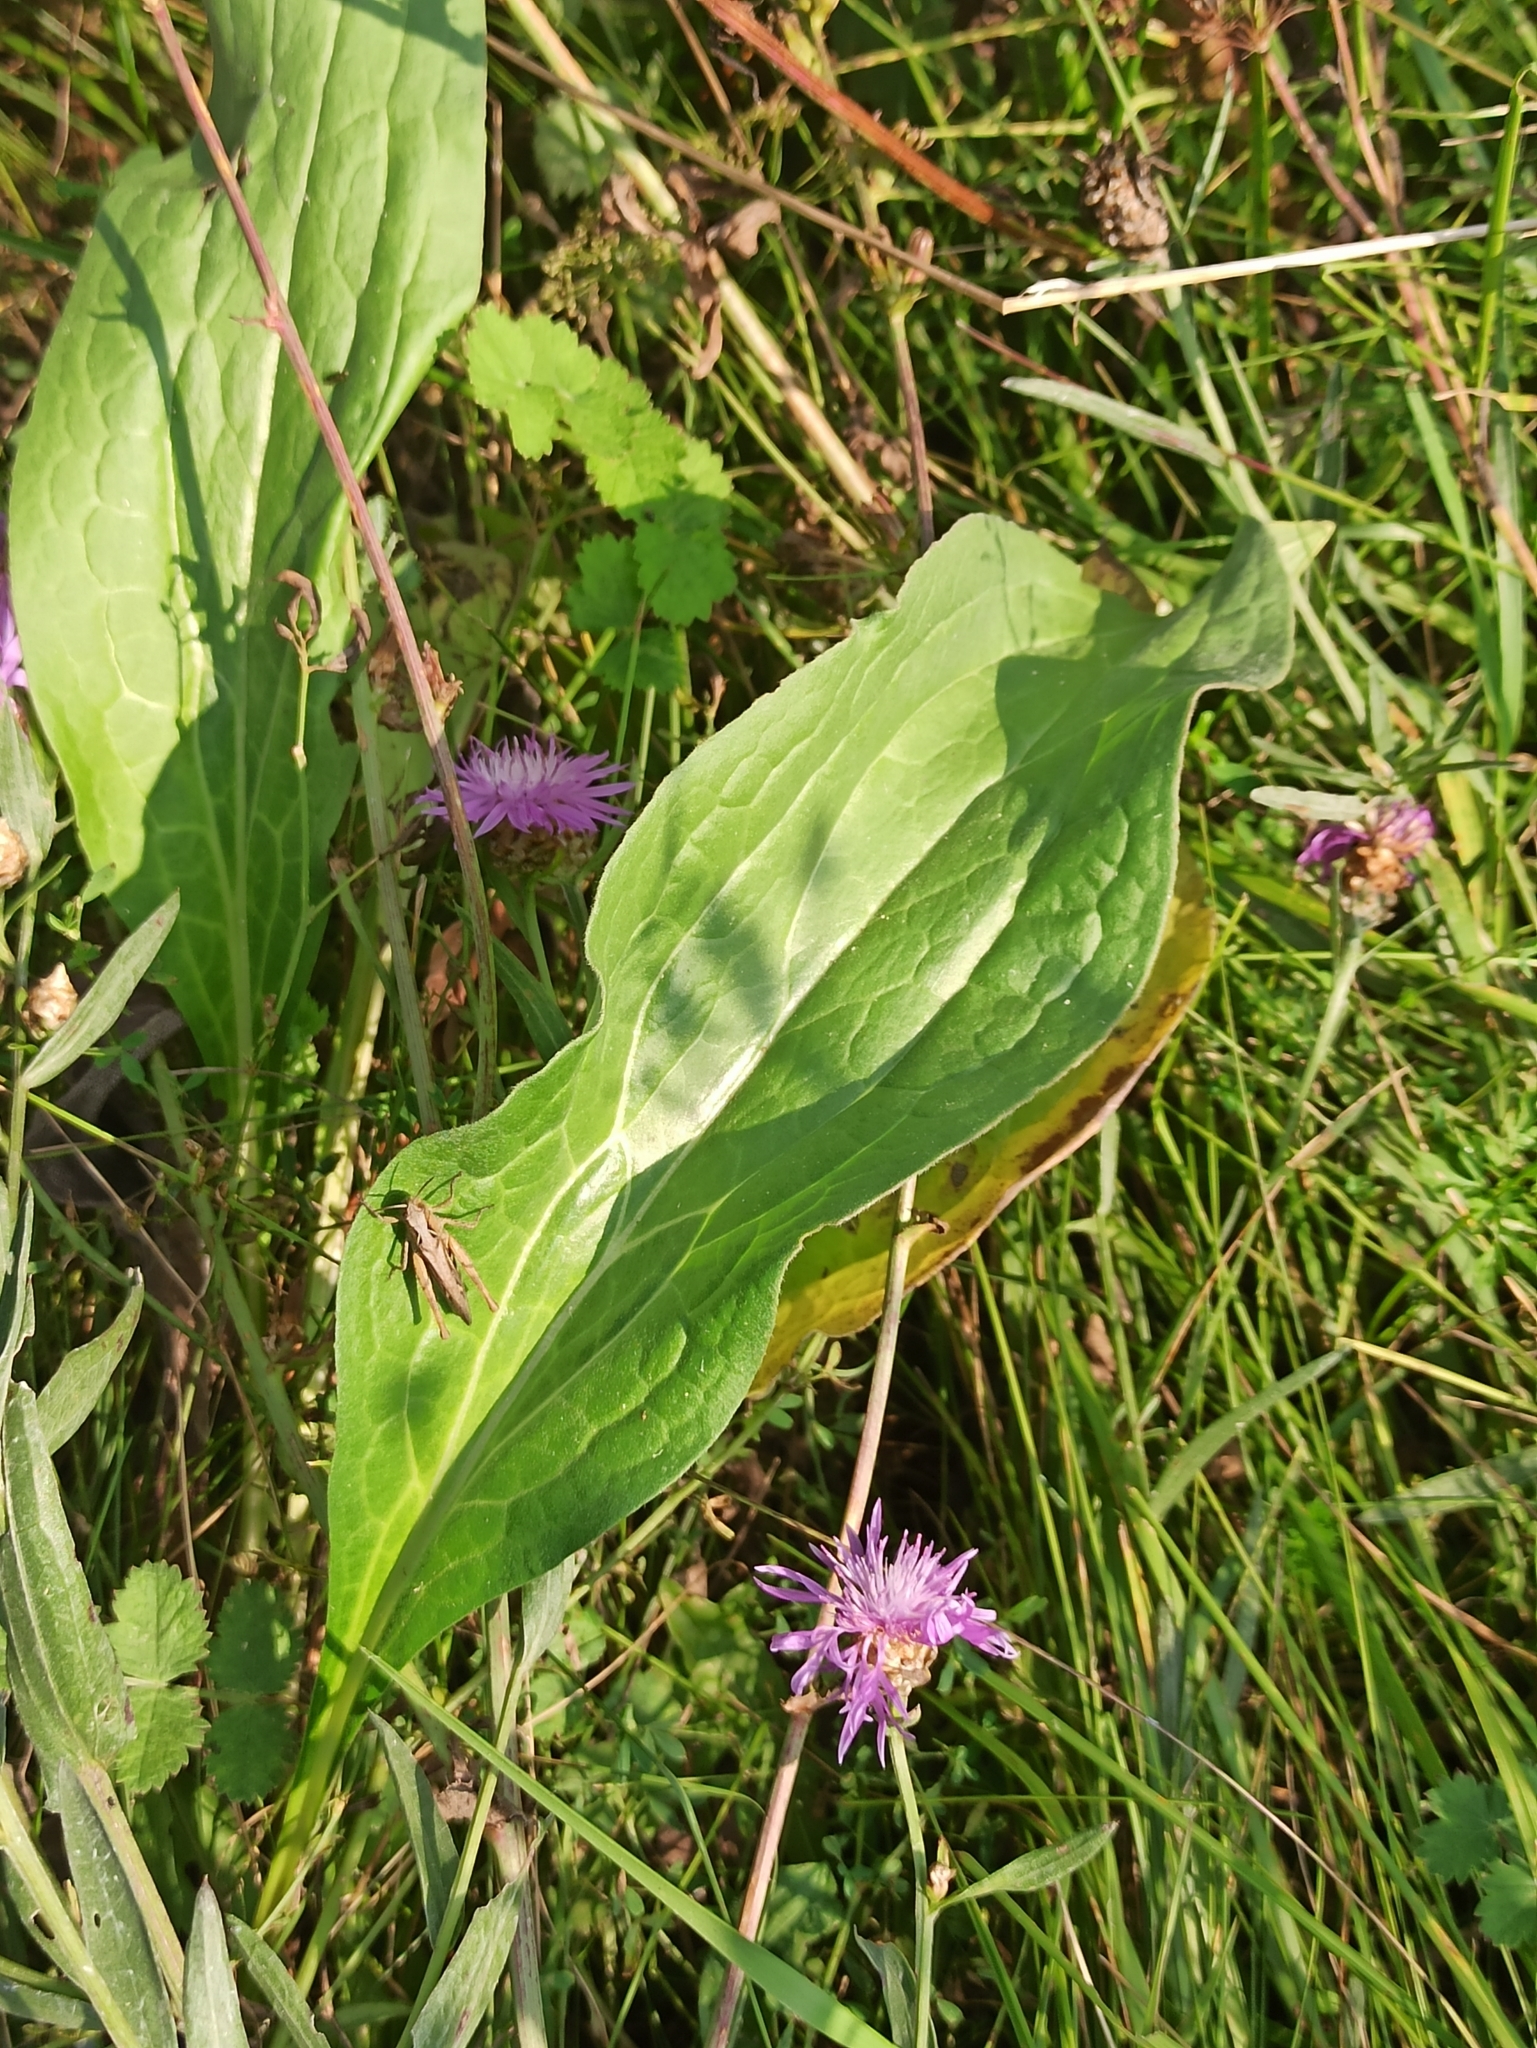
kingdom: Plantae
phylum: Tracheophyta
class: Magnoliopsida
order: Boraginales
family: Boraginaceae
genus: Cynoglossum
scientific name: Cynoglossum officinale
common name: Hound's-tongue
